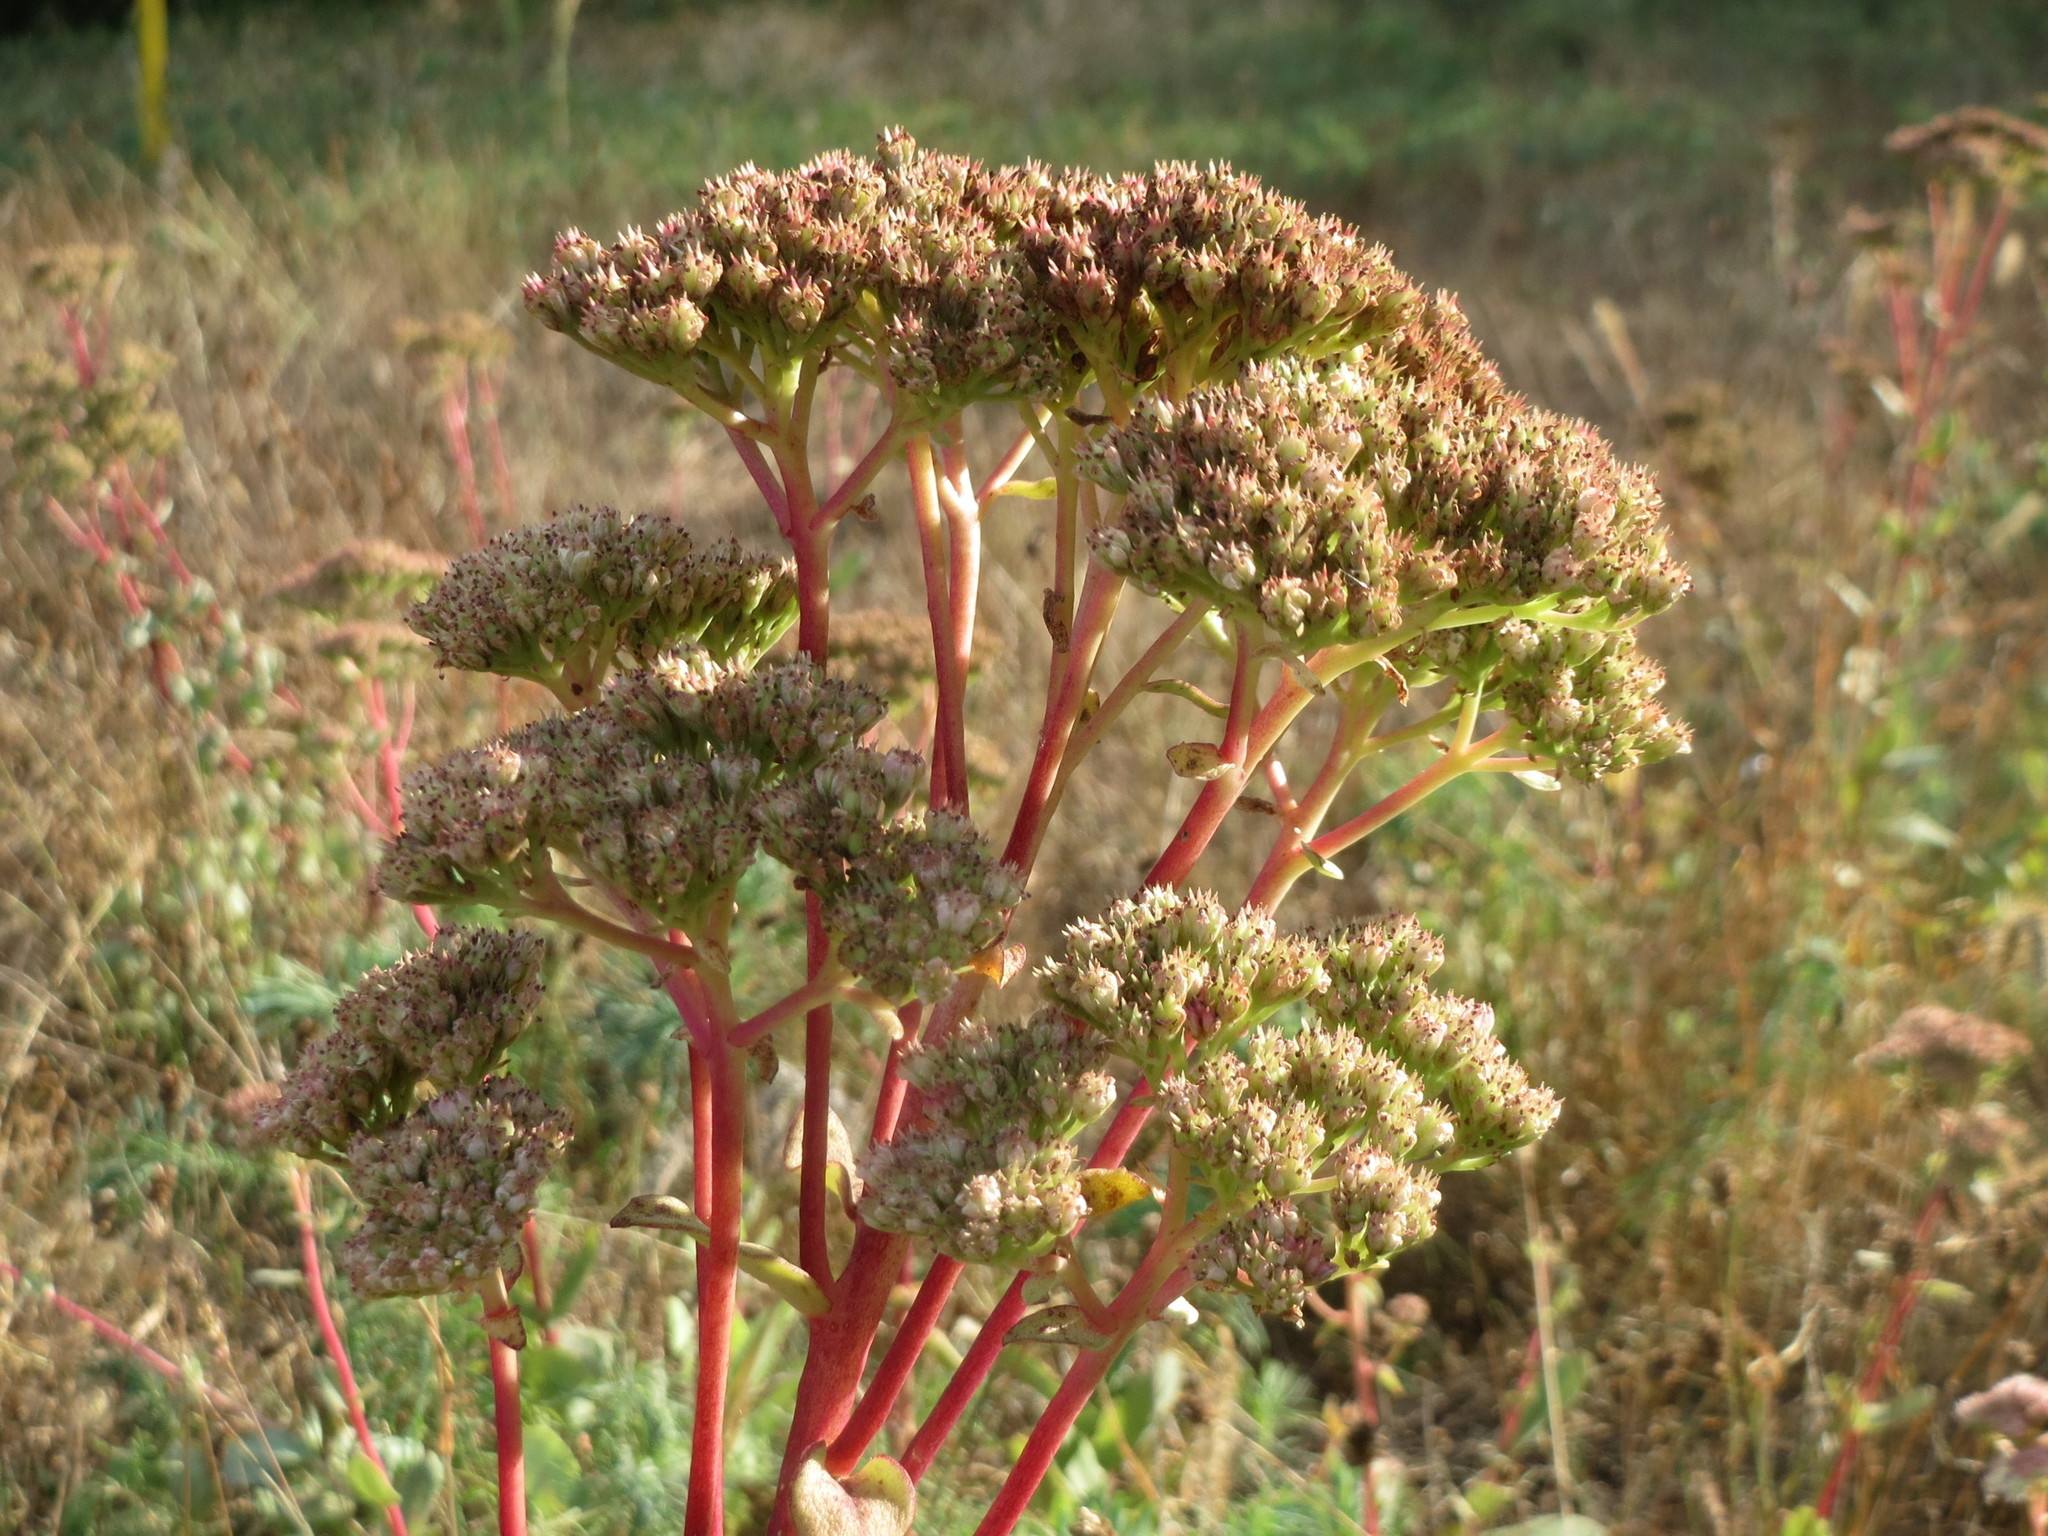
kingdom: Plantae
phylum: Tracheophyta
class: Magnoliopsida
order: Saxifragales
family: Crassulaceae
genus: Hylotelephium
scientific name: Hylotelephium maximum
